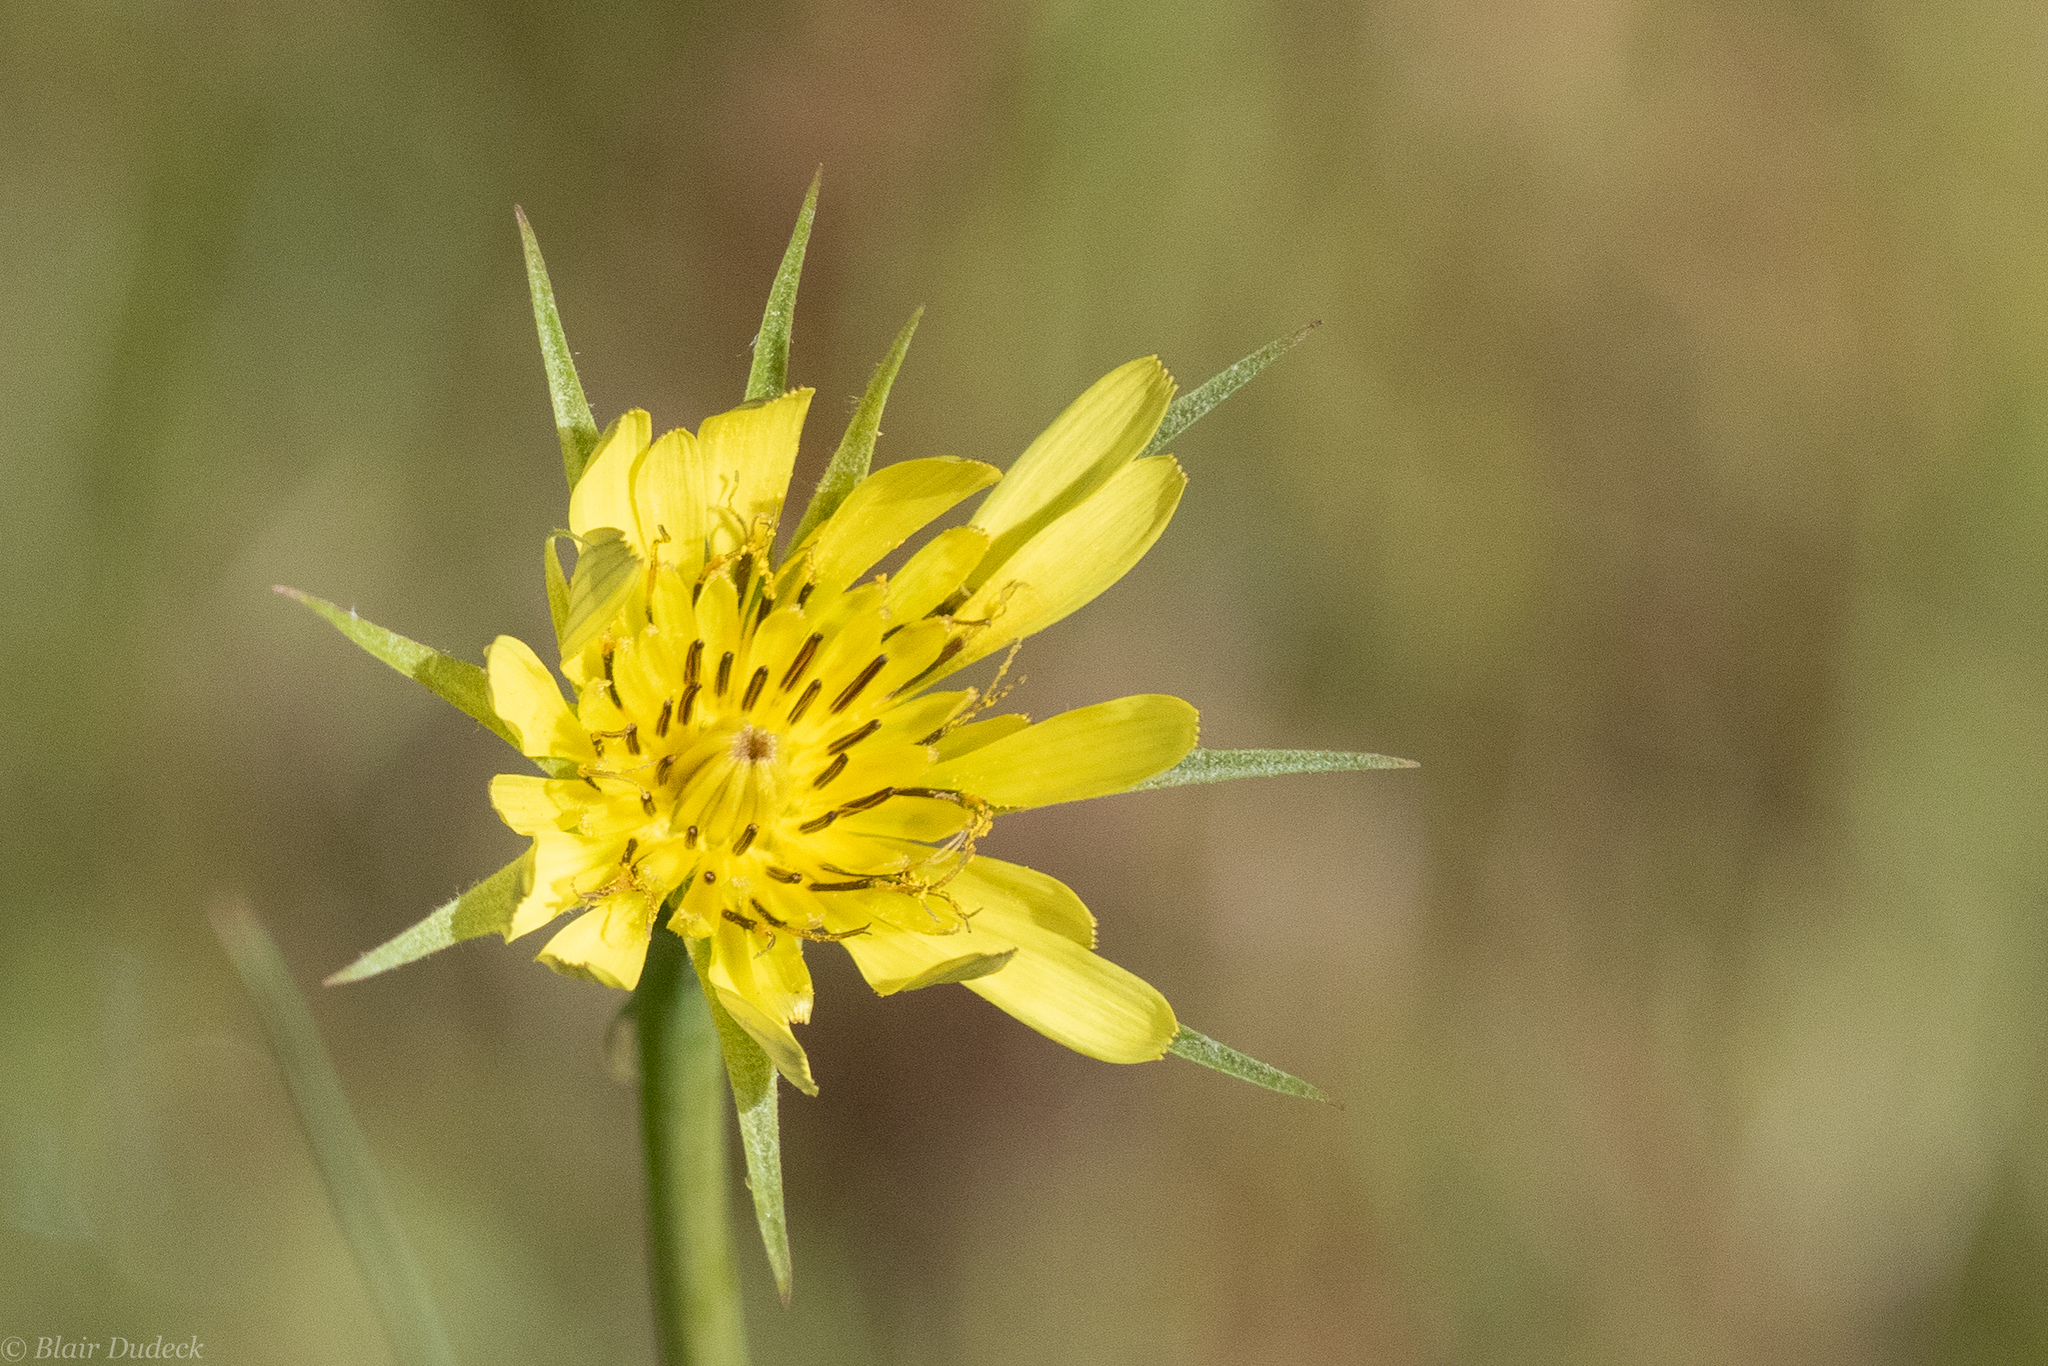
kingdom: Plantae
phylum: Tracheophyta
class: Magnoliopsida
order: Asterales
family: Asteraceae
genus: Tragopogon
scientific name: Tragopogon dubius
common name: Yellow salsify
